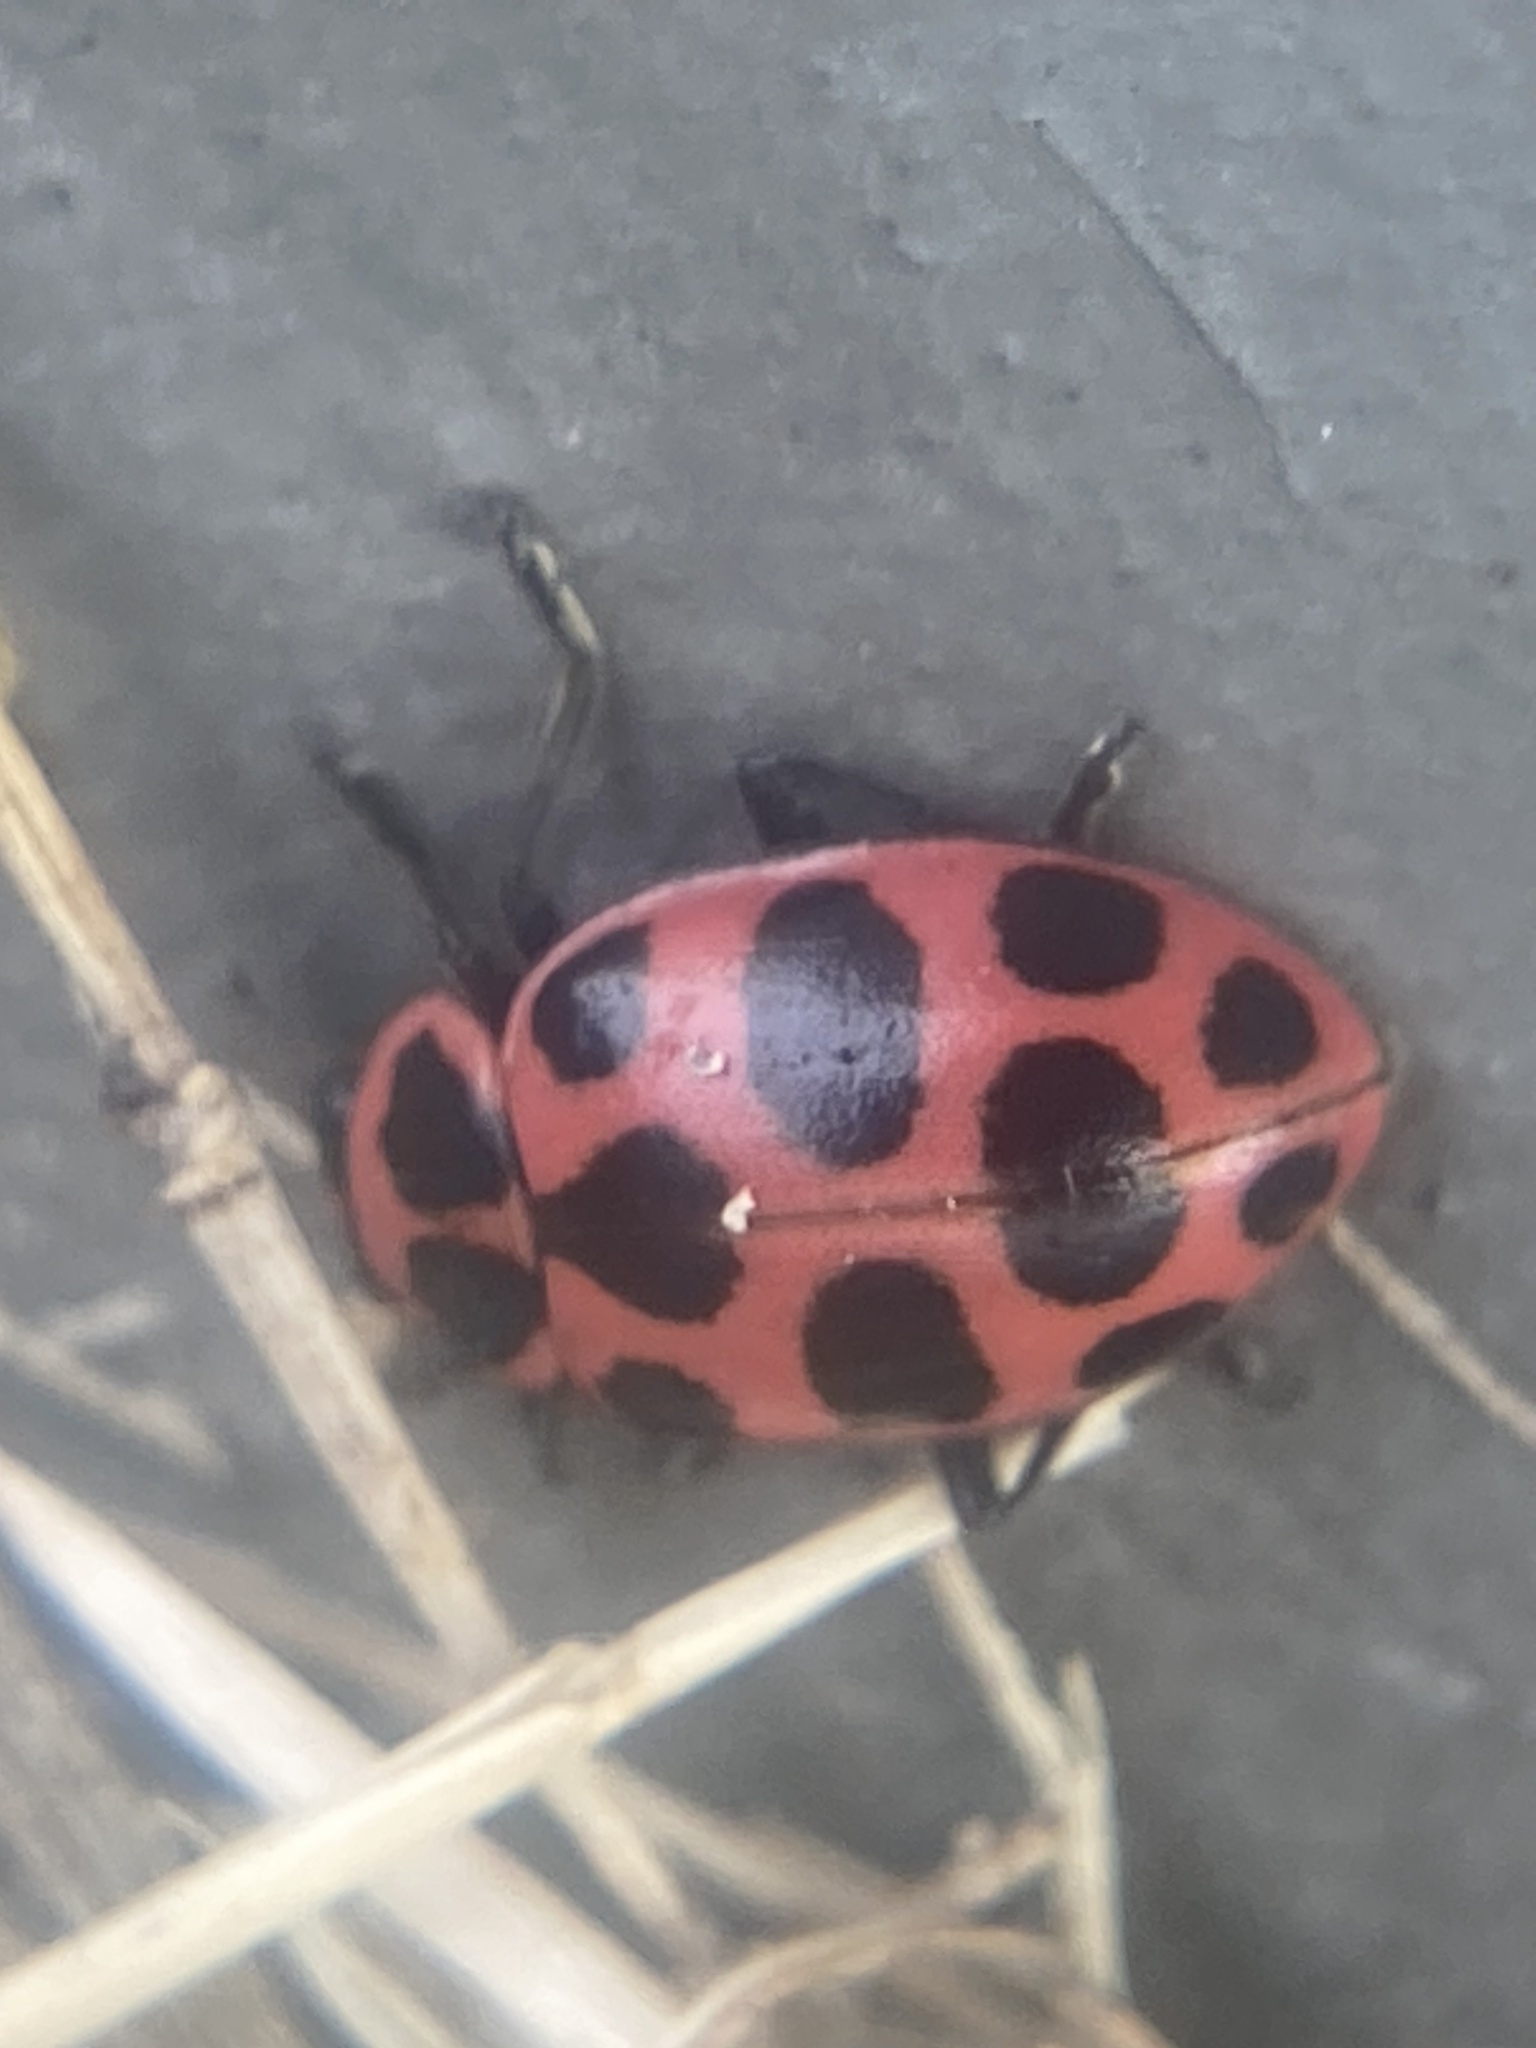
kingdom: Animalia
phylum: Arthropoda
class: Insecta
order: Coleoptera
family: Coccinellidae
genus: Coleomegilla
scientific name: Coleomegilla maculata
